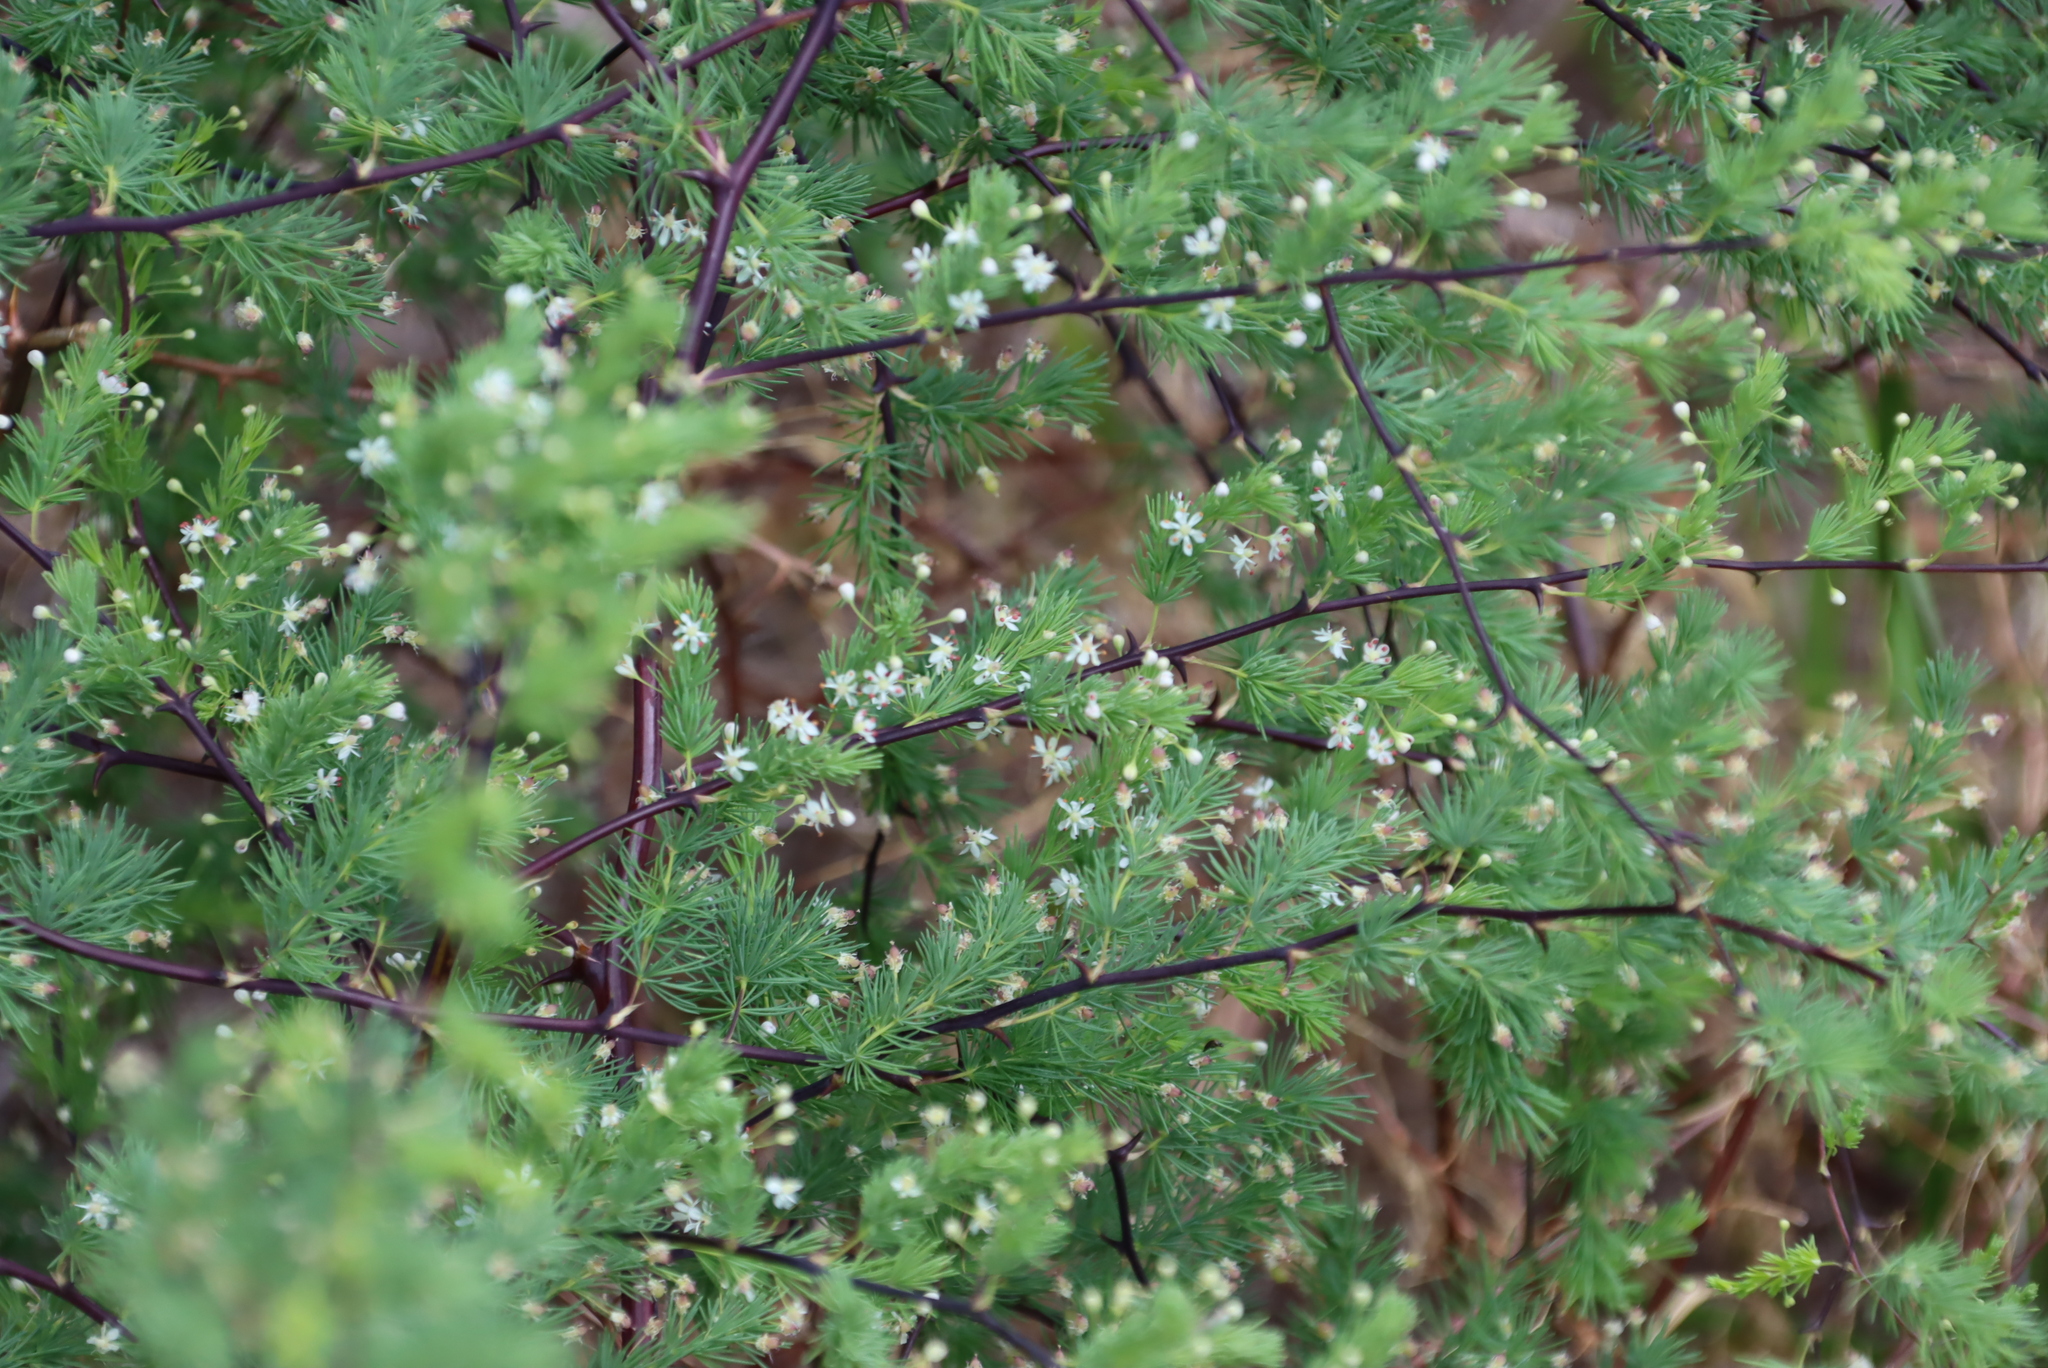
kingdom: Plantae
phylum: Tracheophyta
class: Liliopsida
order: Asparagales
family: Asparagaceae
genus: Asparagus
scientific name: Asparagus rubicundus
